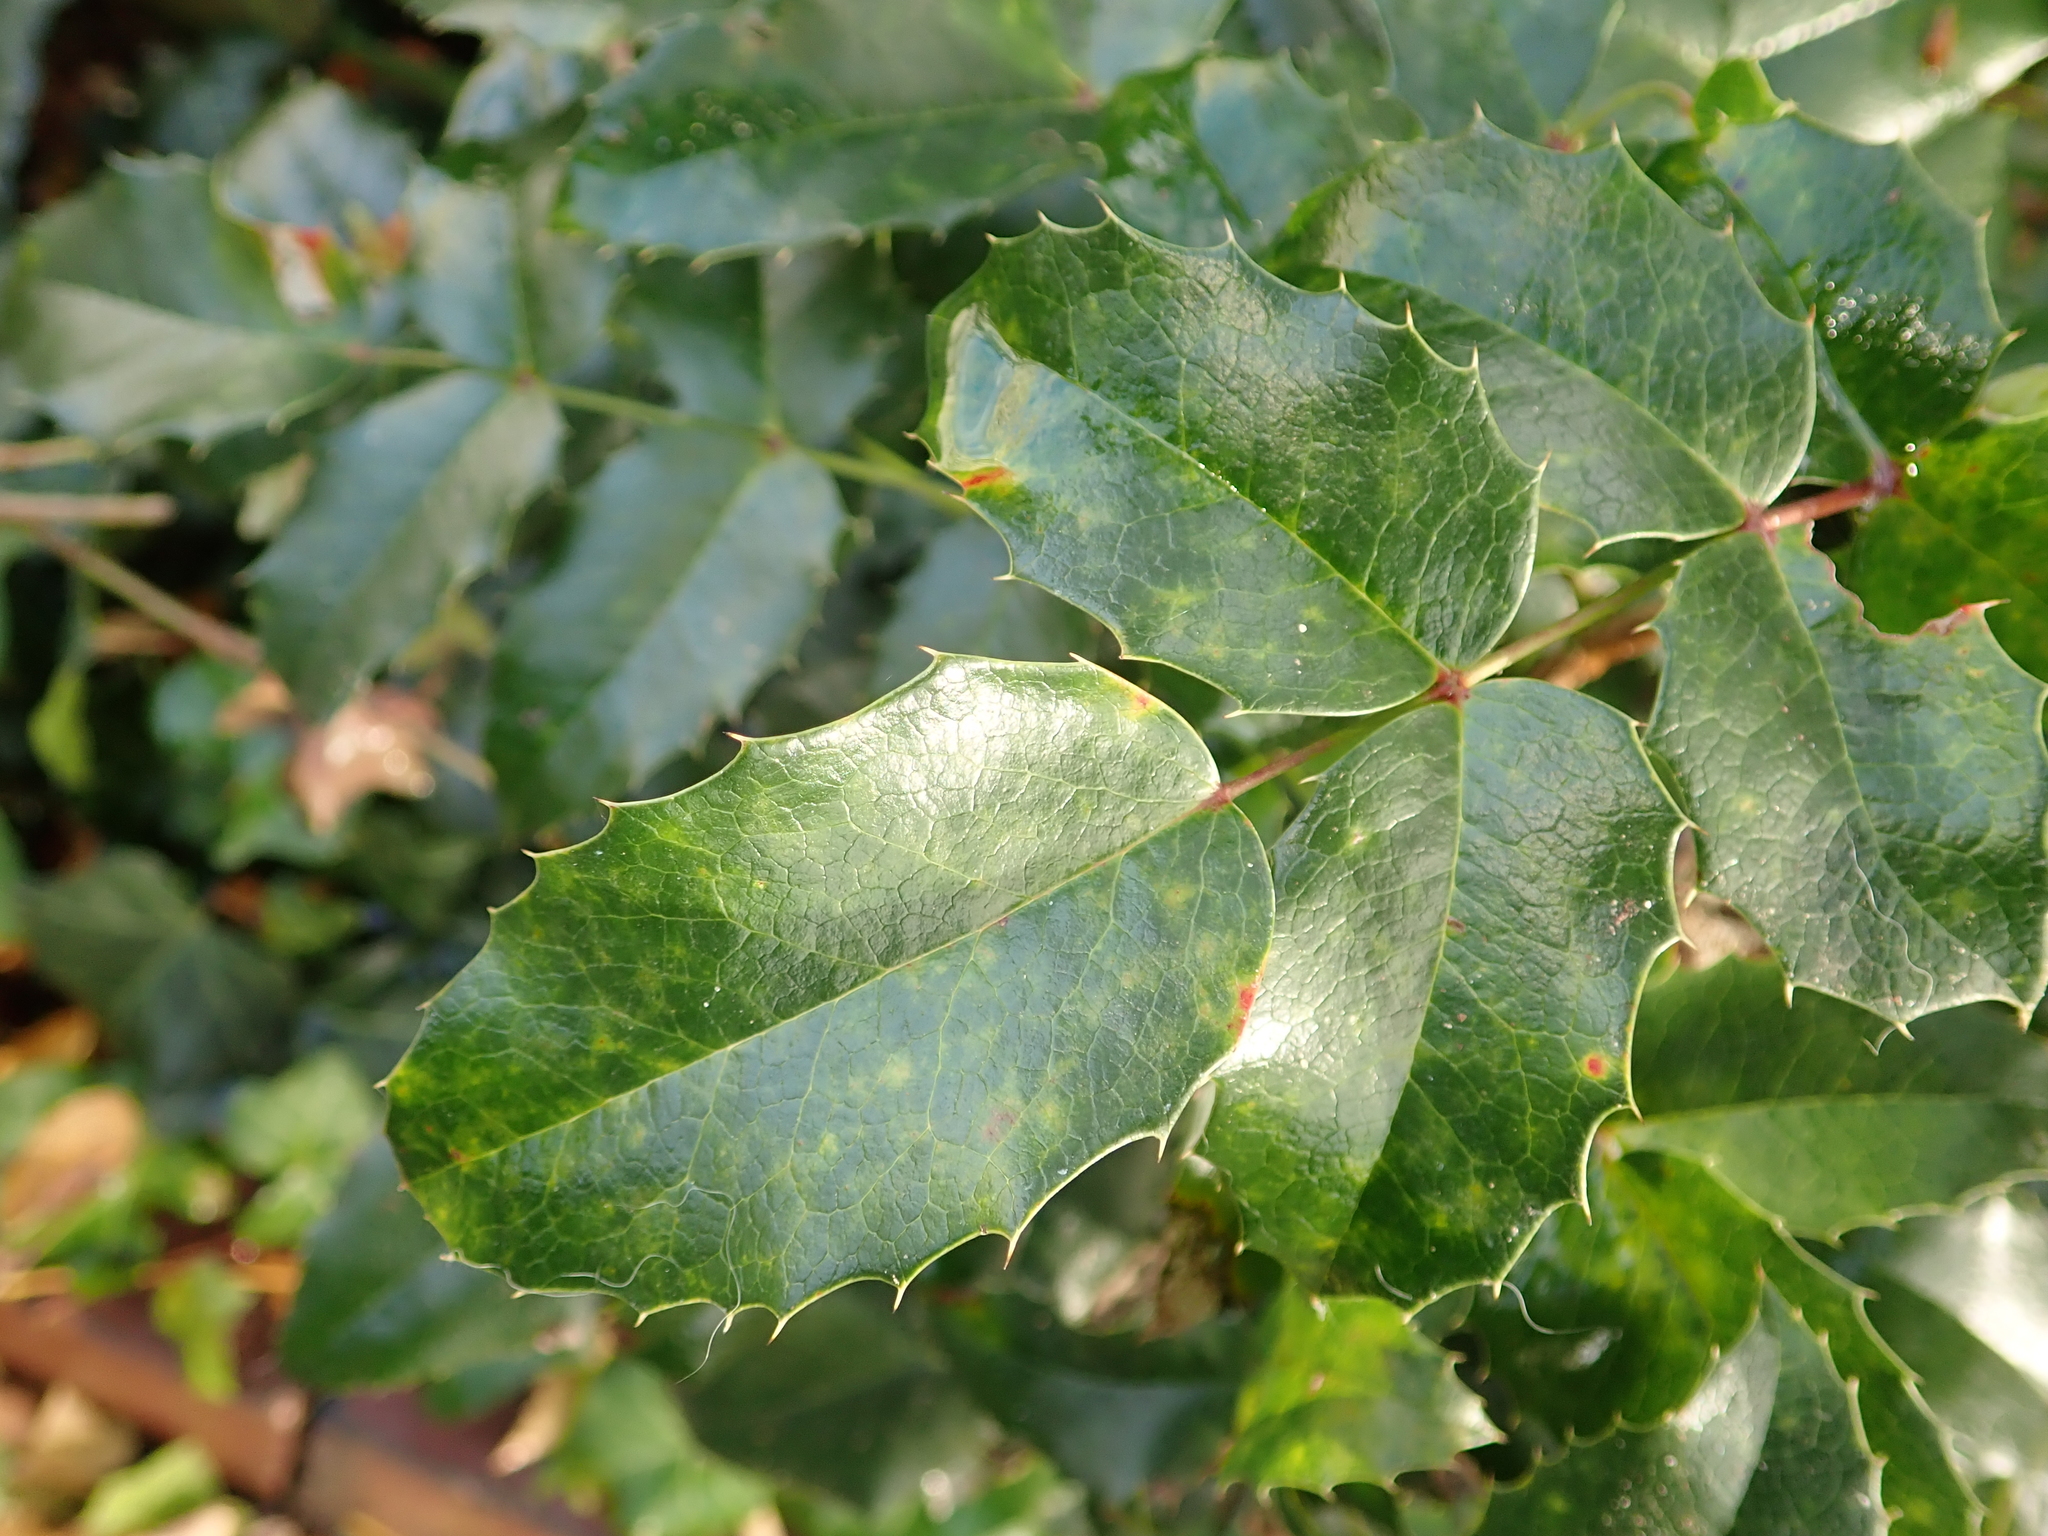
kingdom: Plantae
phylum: Tracheophyta
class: Magnoliopsida
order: Ranunculales
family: Berberidaceae
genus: Mahonia
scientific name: Mahonia aquifolium
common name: Oregon-grape
